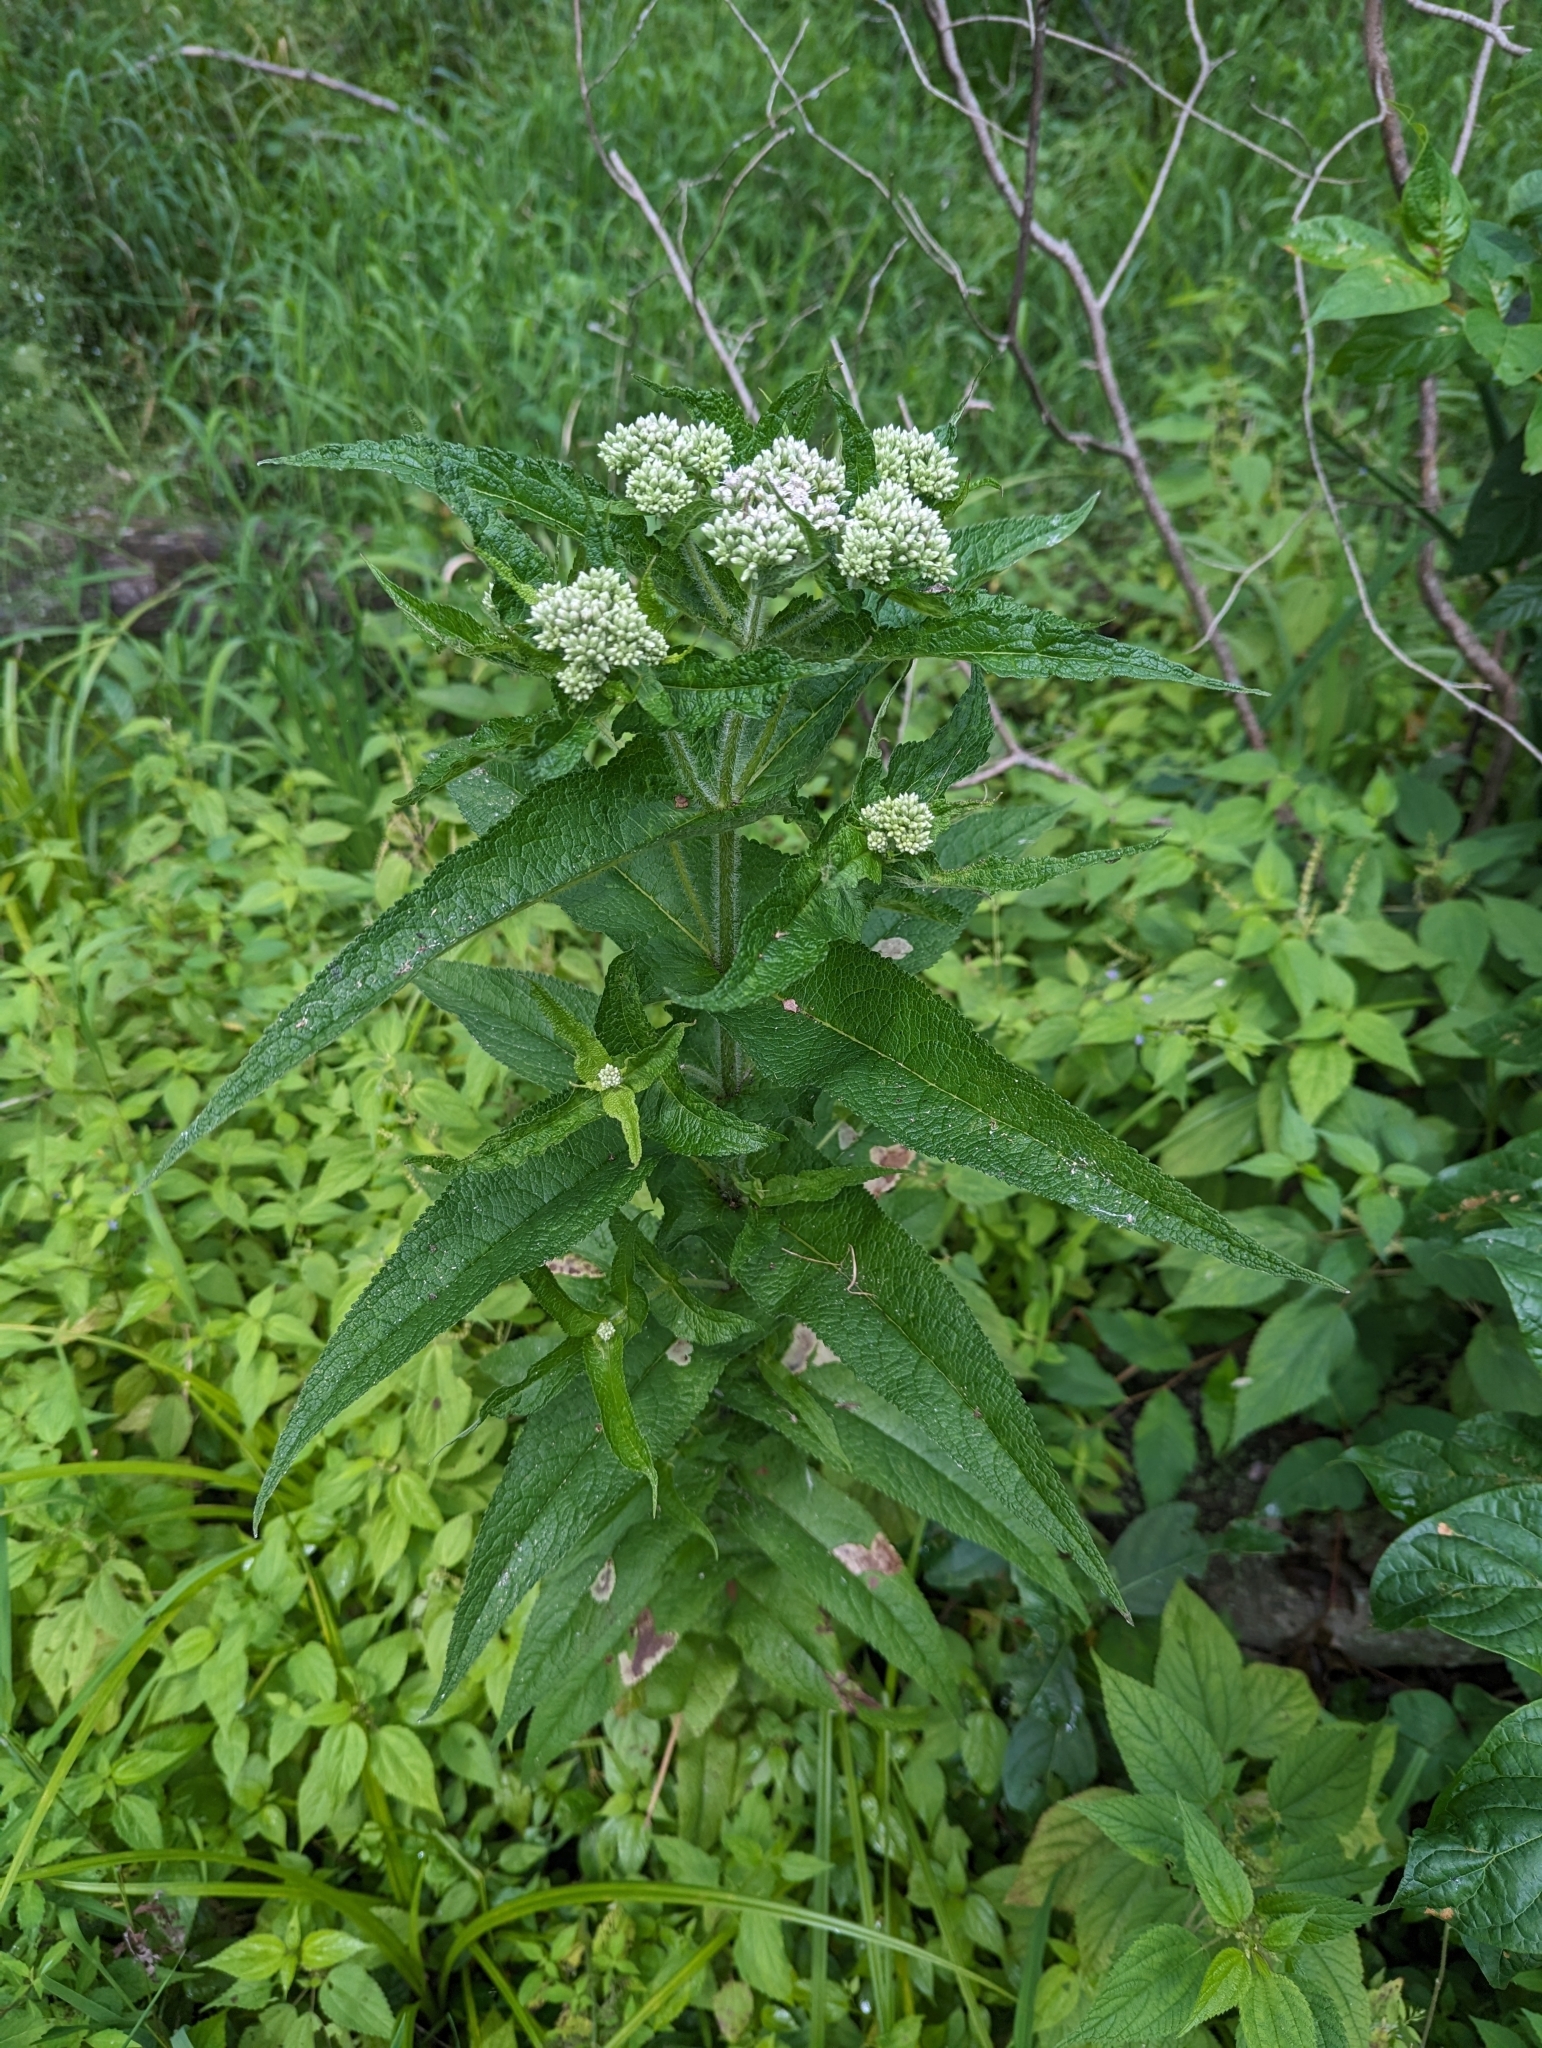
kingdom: Plantae
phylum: Tracheophyta
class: Magnoliopsida
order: Asterales
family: Asteraceae
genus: Eupatorium
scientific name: Eupatorium perfoliatum
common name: Boneset
